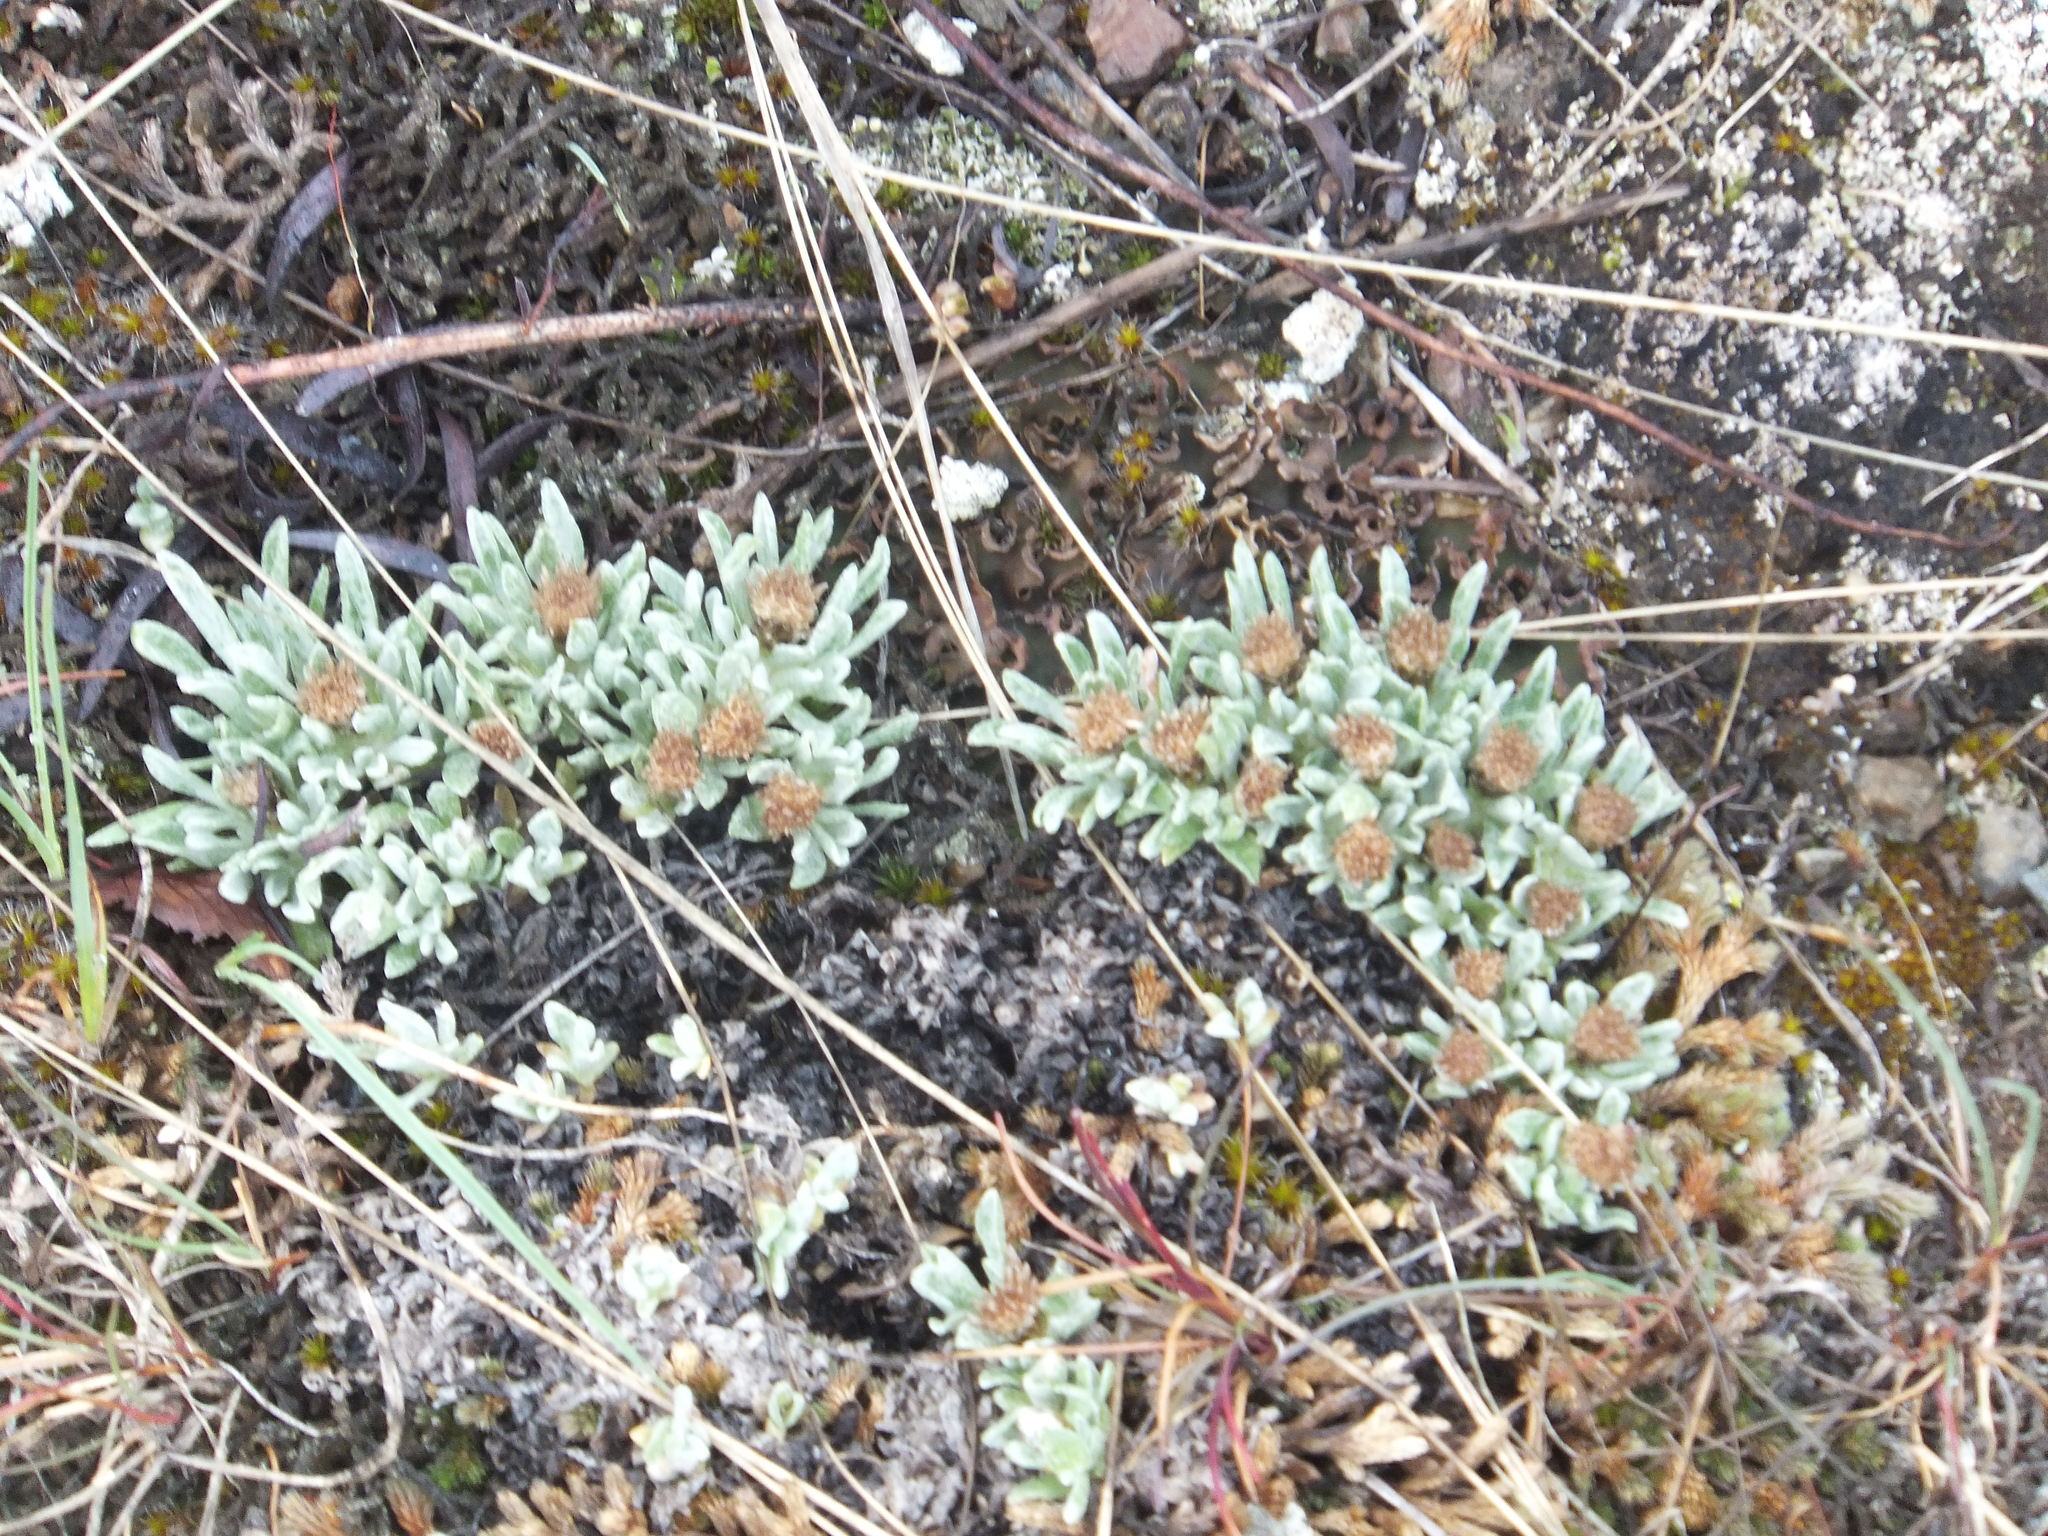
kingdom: Plantae
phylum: Tracheophyta
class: Magnoliopsida
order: Asterales
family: Asteraceae
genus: Antennaria
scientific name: Antennaria dimorpha
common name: Cushion pussytoes
